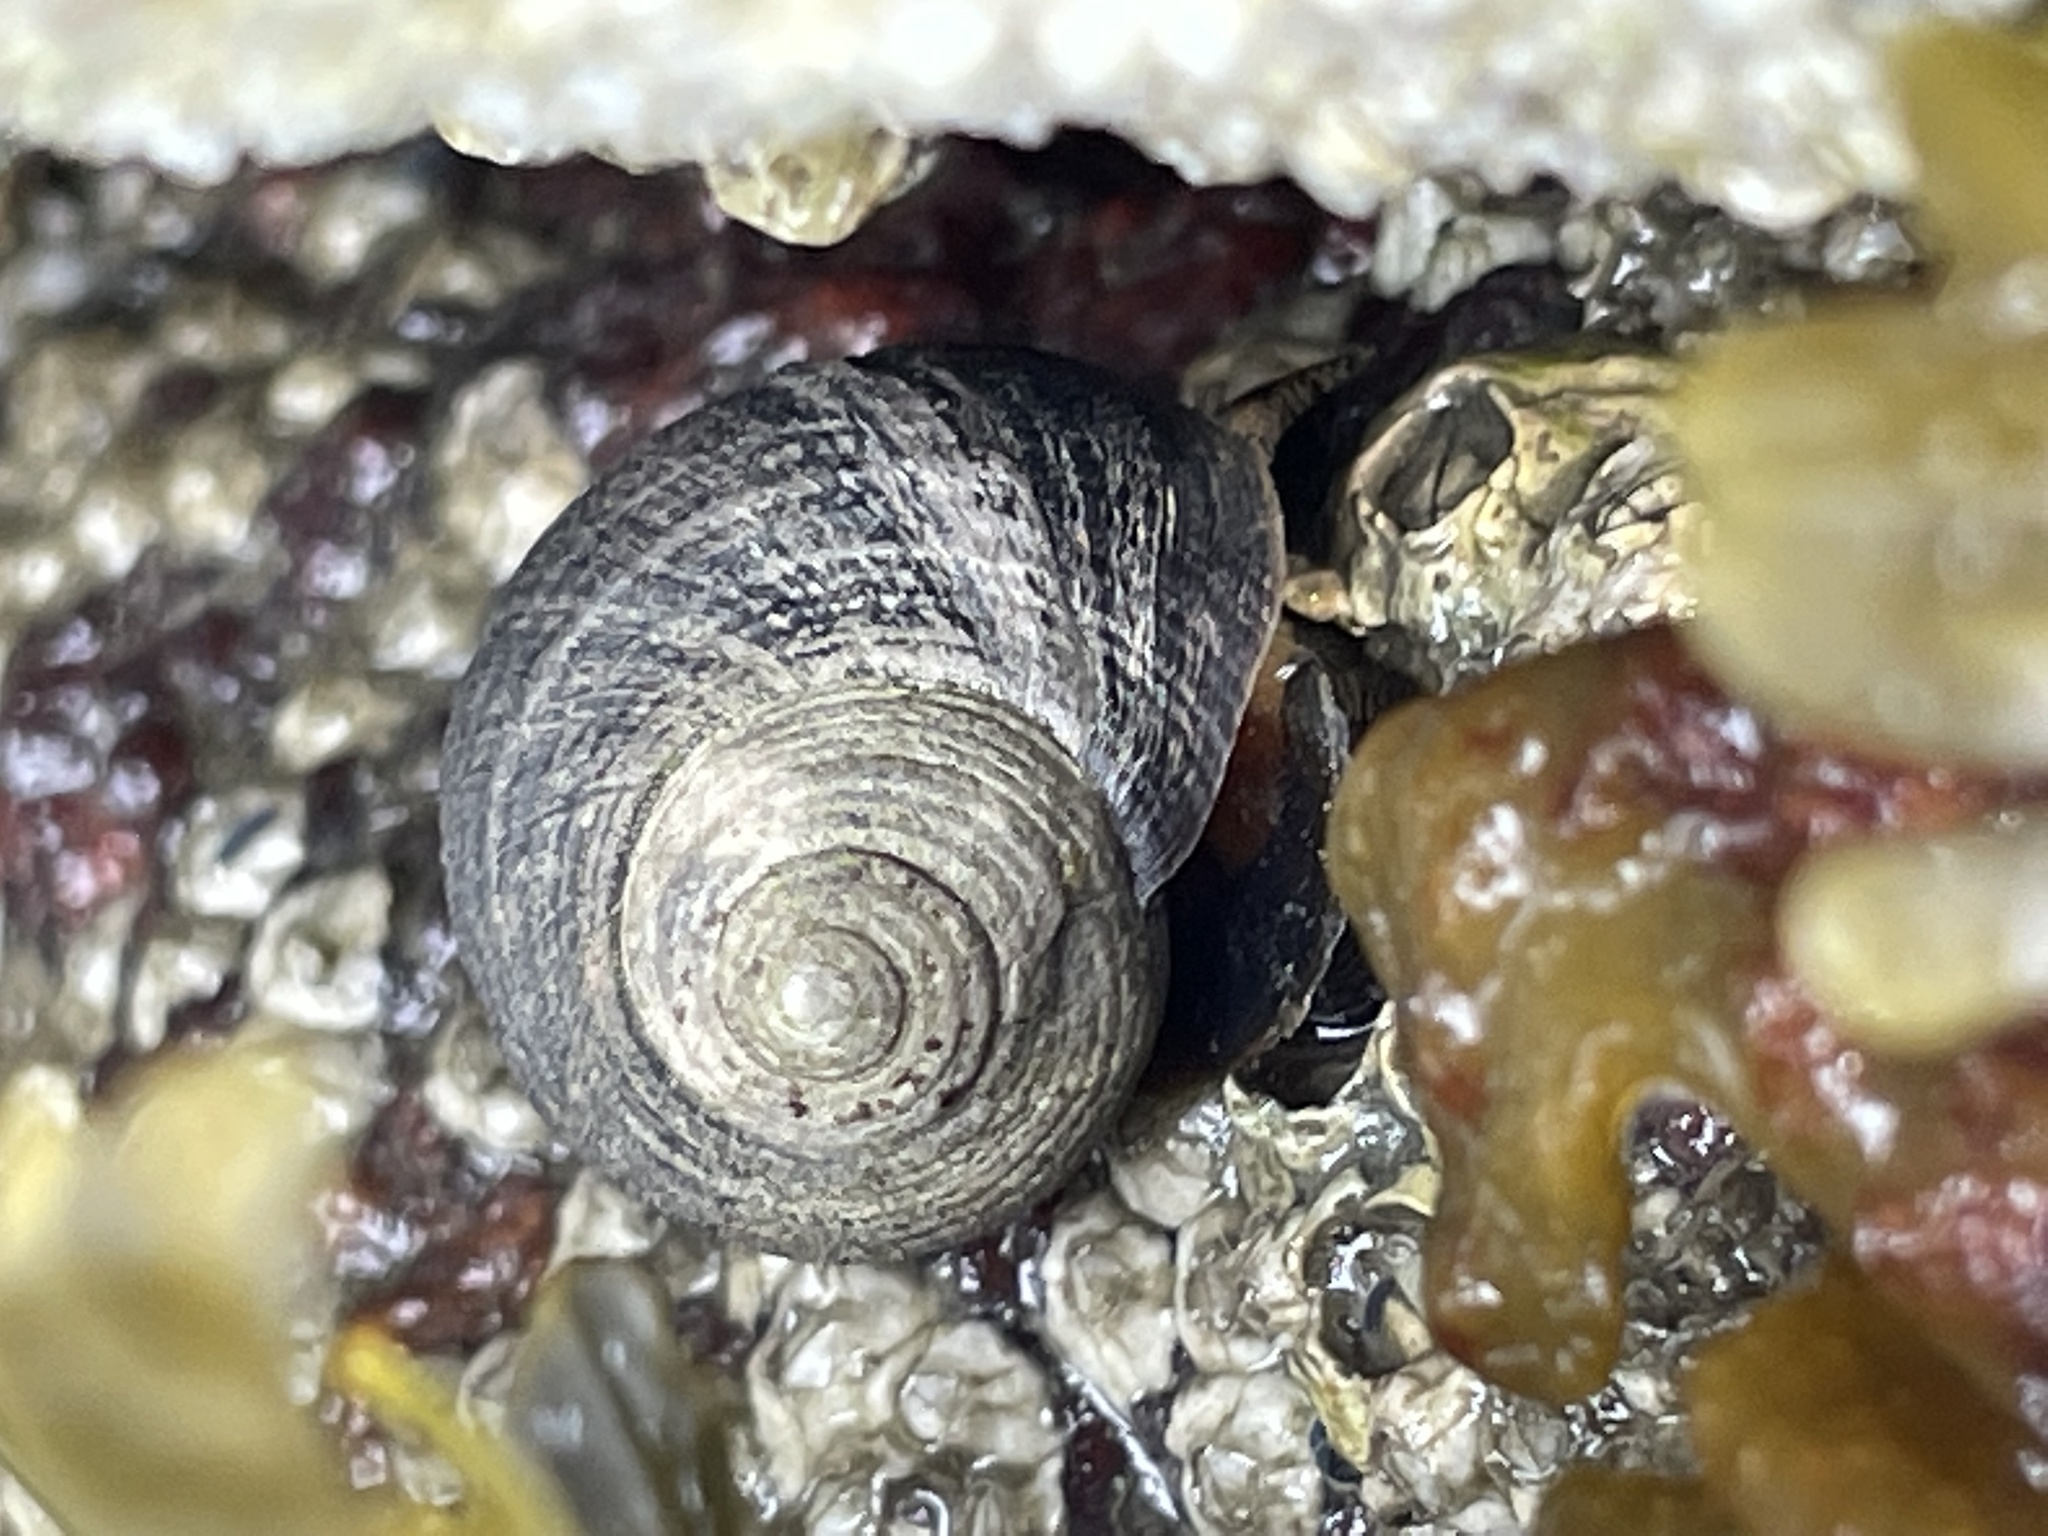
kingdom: Animalia
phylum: Mollusca
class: Gastropoda
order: Littorinimorpha
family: Littorinidae
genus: Littorina
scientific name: Littorina littorea
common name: Common periwinkle
